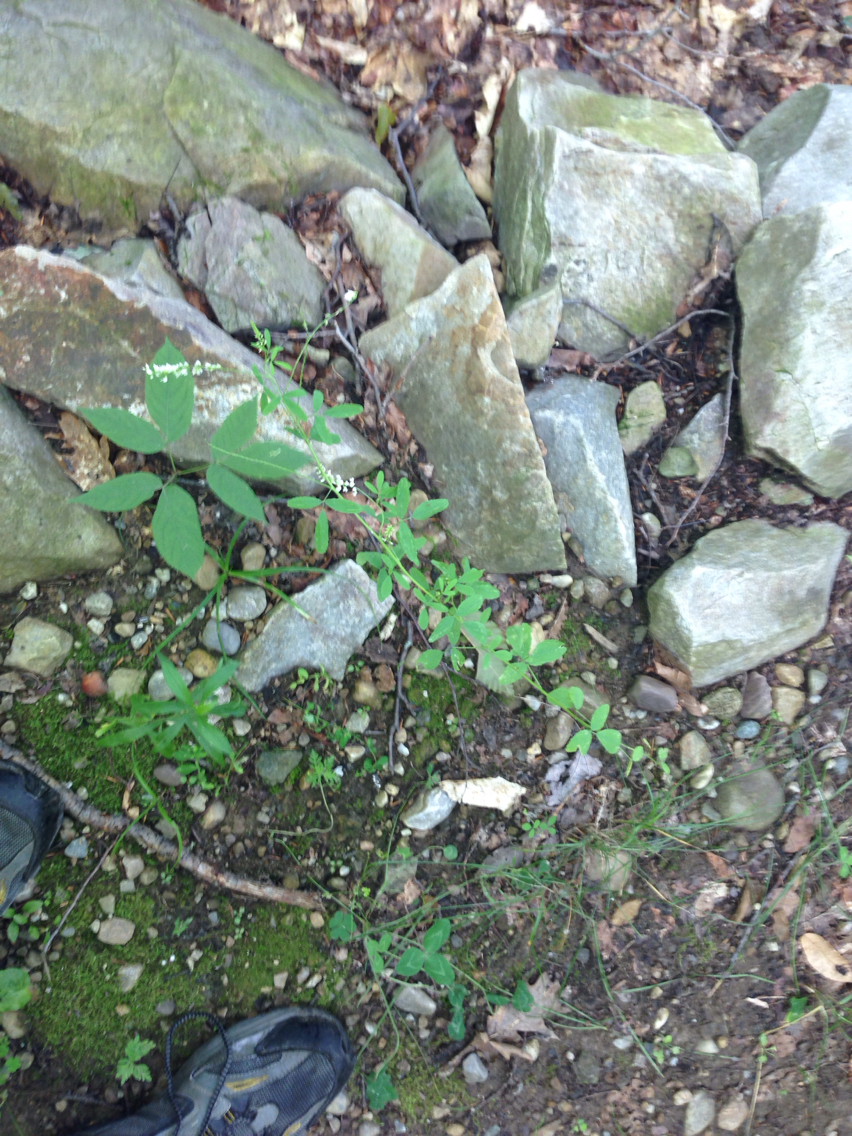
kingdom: Plantae
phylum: Tracheophyta
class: Magnoliopsida
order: Fabales
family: Fabaceae
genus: Melilotus
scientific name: Melilotus albus
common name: White melilot
